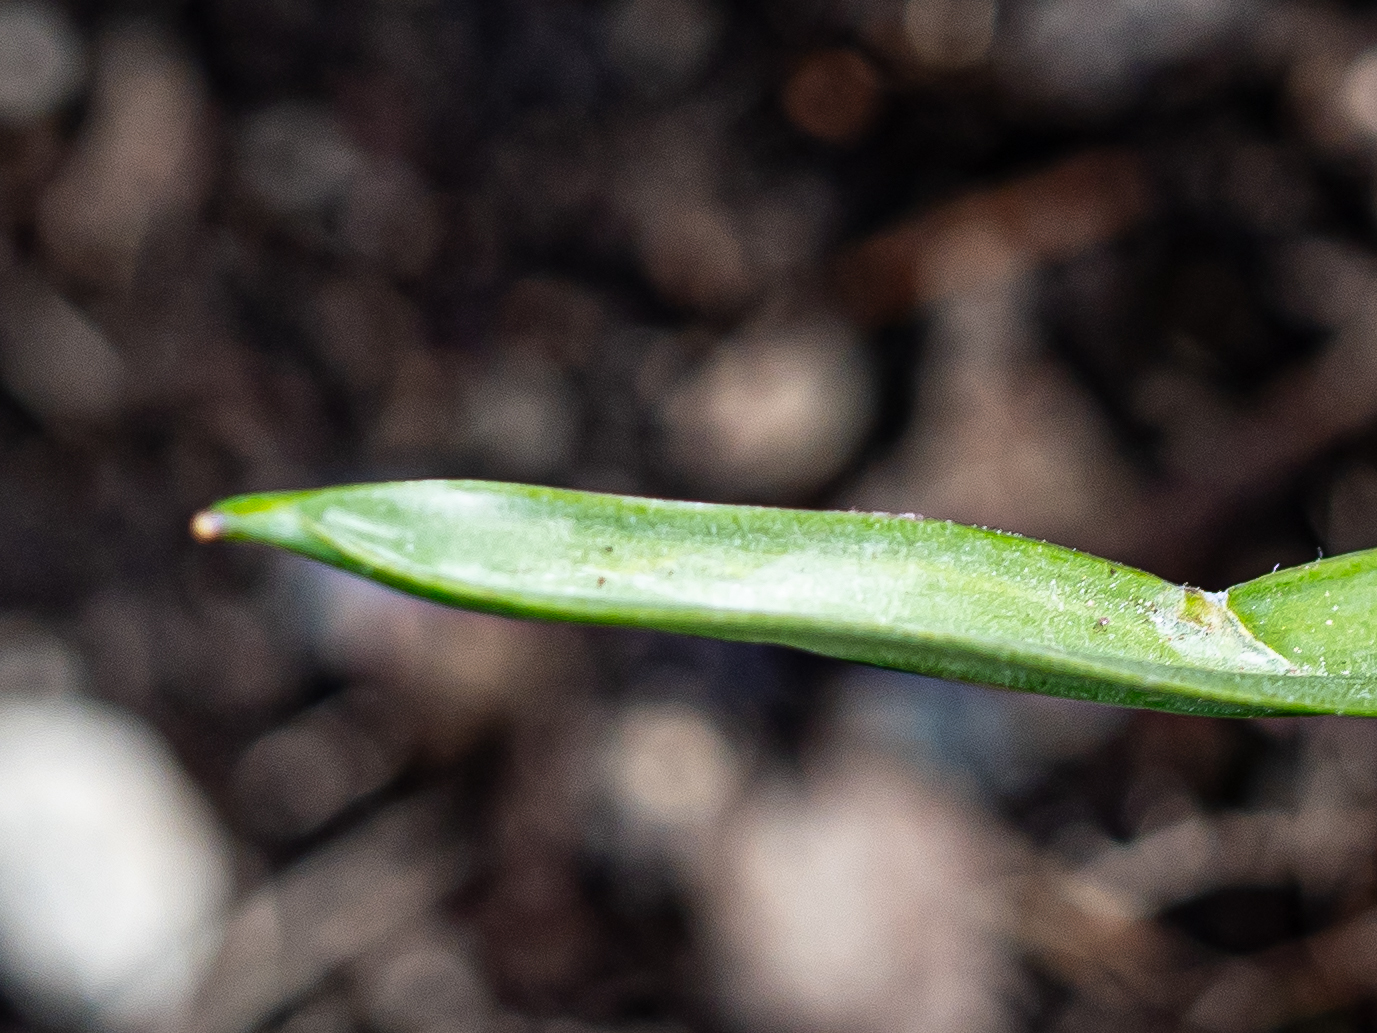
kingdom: Plantae
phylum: Tracheophyta
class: Liliopsida
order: Liliales
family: Liliaceae
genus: Gagea
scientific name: Gagea lutea
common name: Yellow star-of-bethlehem
